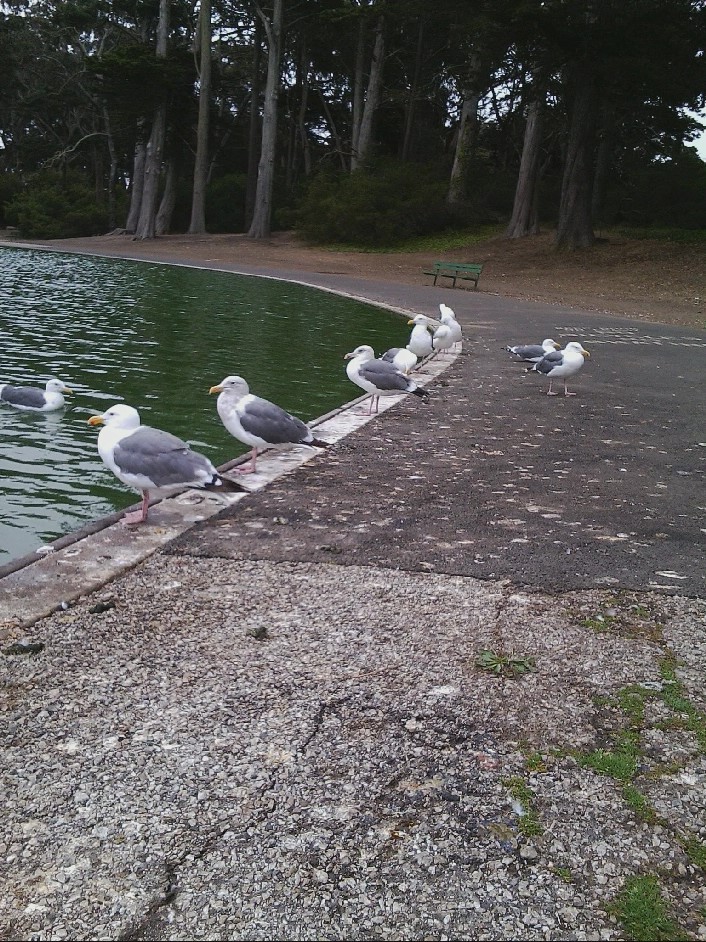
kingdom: Animalia
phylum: Chordata
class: Aves
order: Charadriiformes
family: Laridae
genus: Larus
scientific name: Larus occidentalis
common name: Western gull
